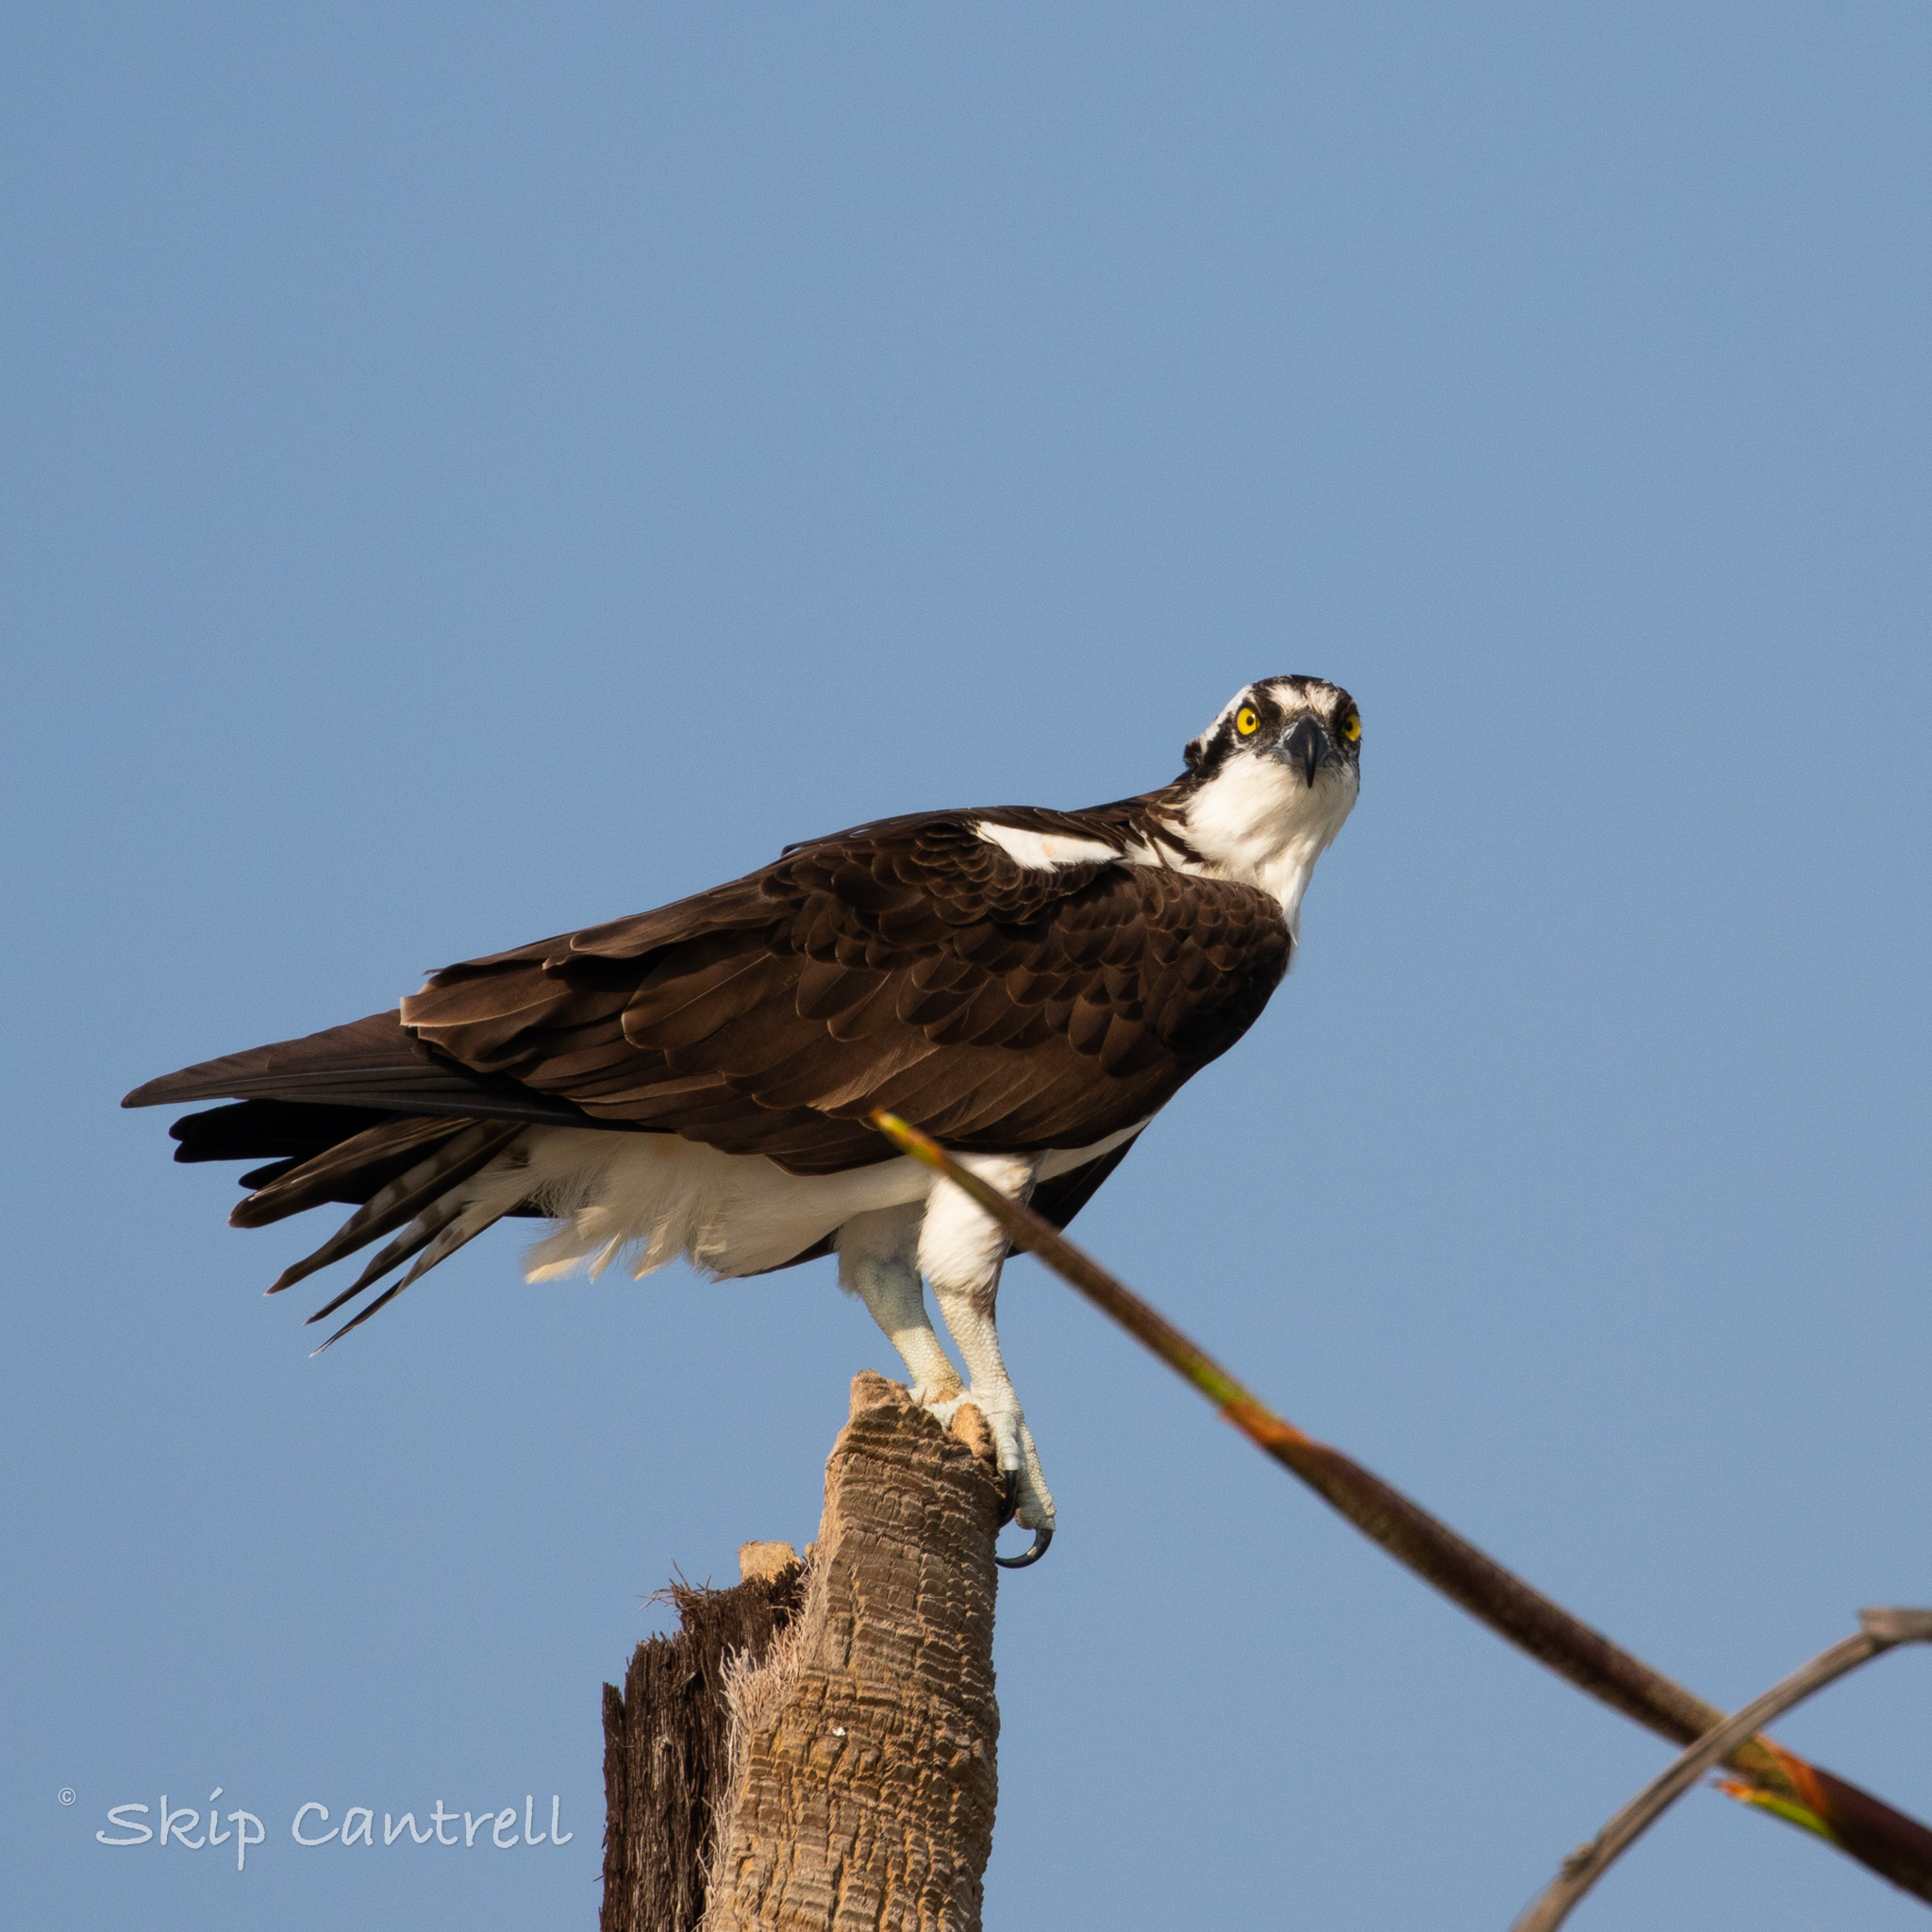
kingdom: Animalia
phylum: Chordata
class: Aves
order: Accipitriformes
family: Pandionidae
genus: Pandion
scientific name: Pandion haliaetus
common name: Osprey
